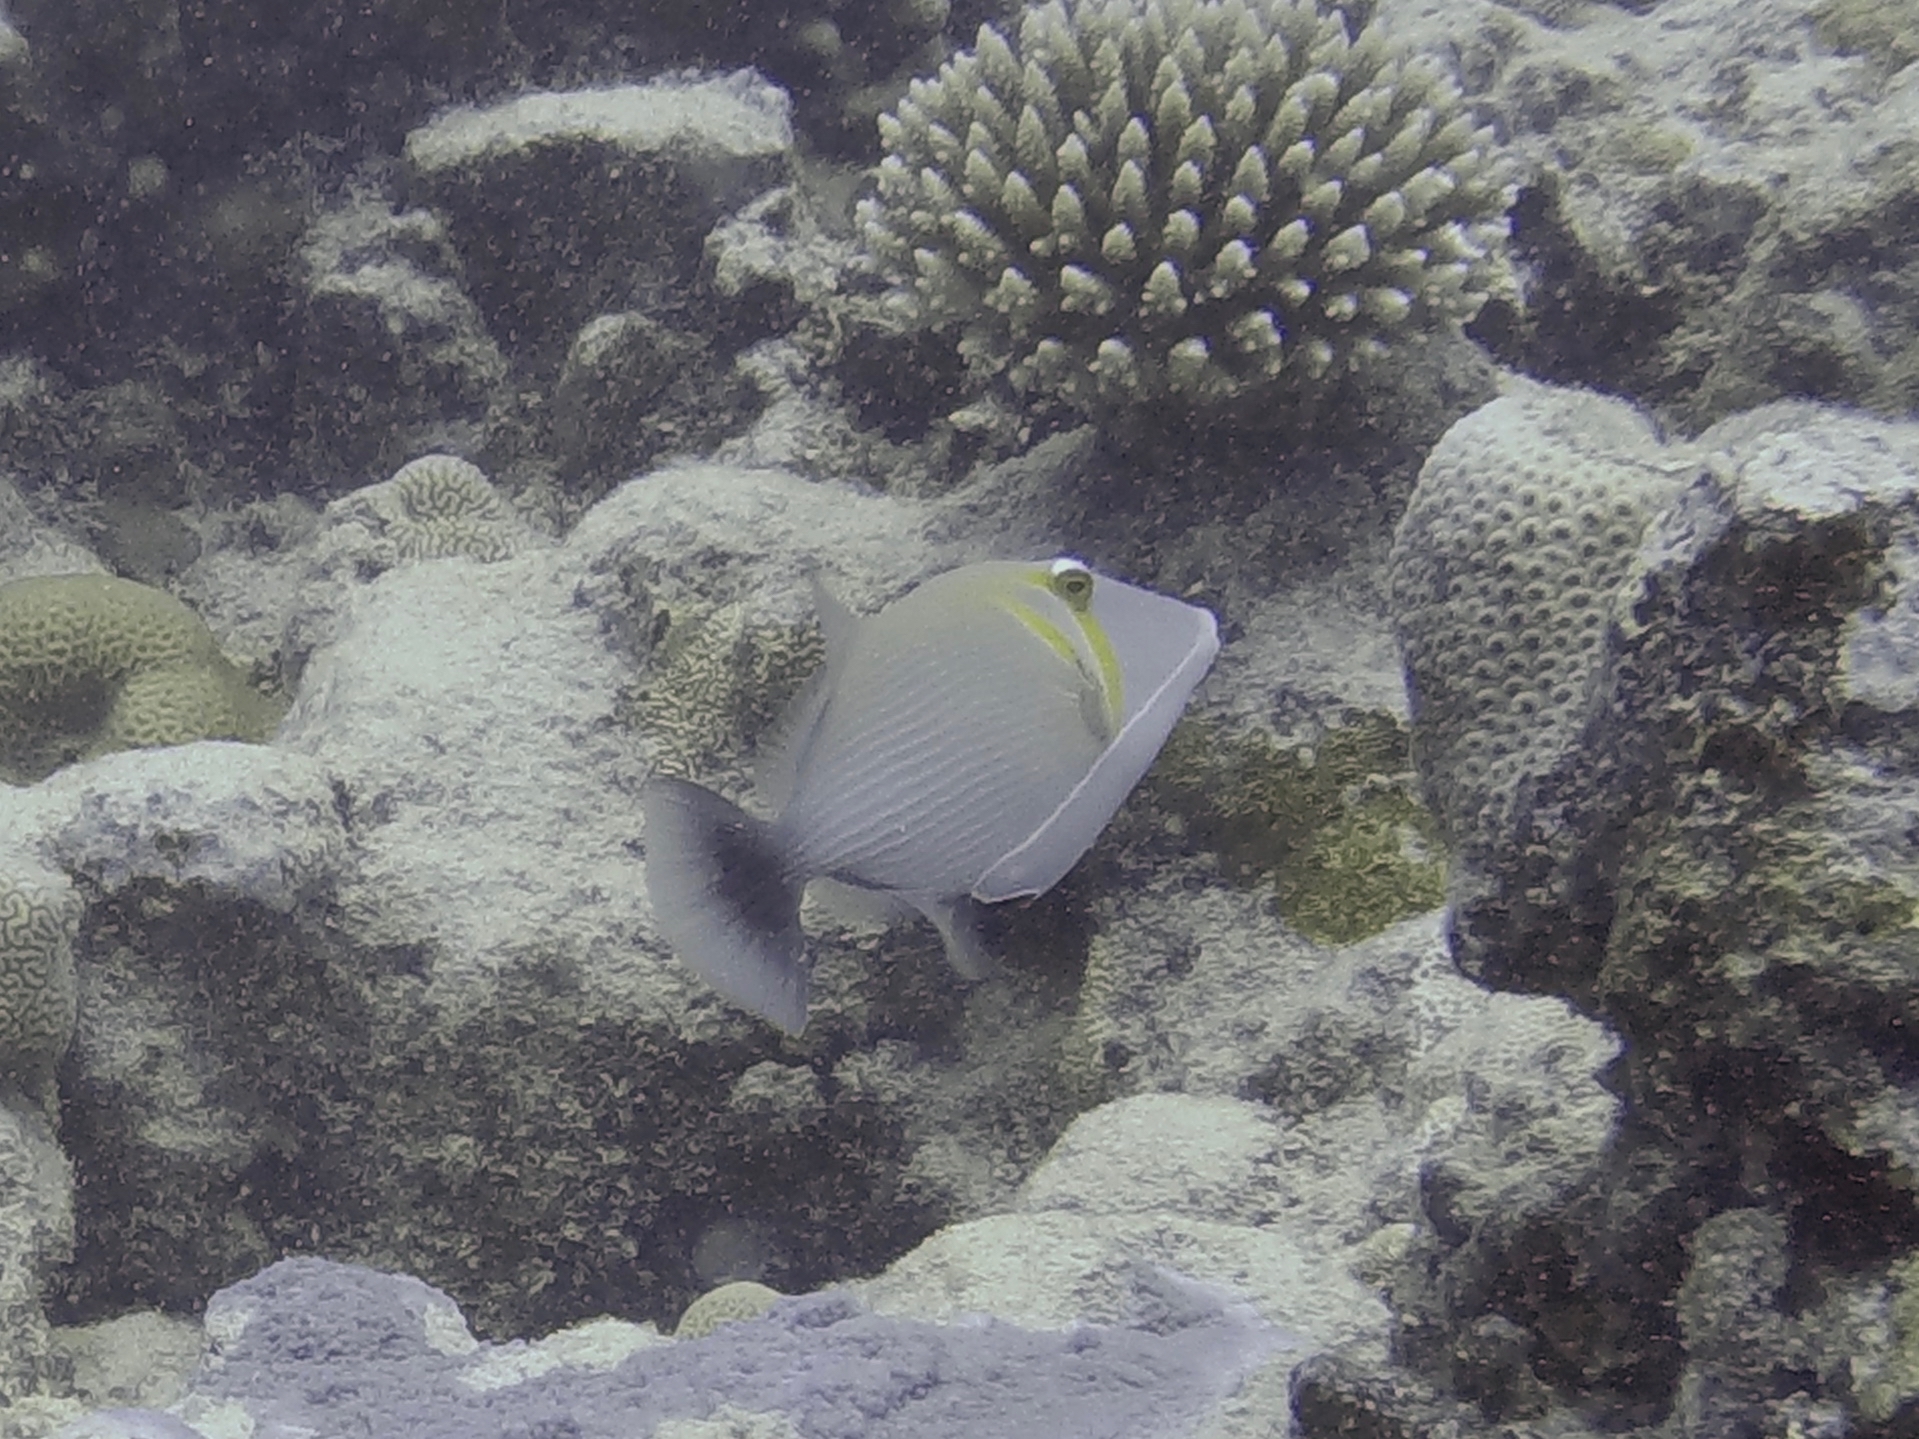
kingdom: Animalia
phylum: Chordata
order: Tetraodontiformes
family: Balistidae
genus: Sufflamen
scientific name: Sufflamen bursa
